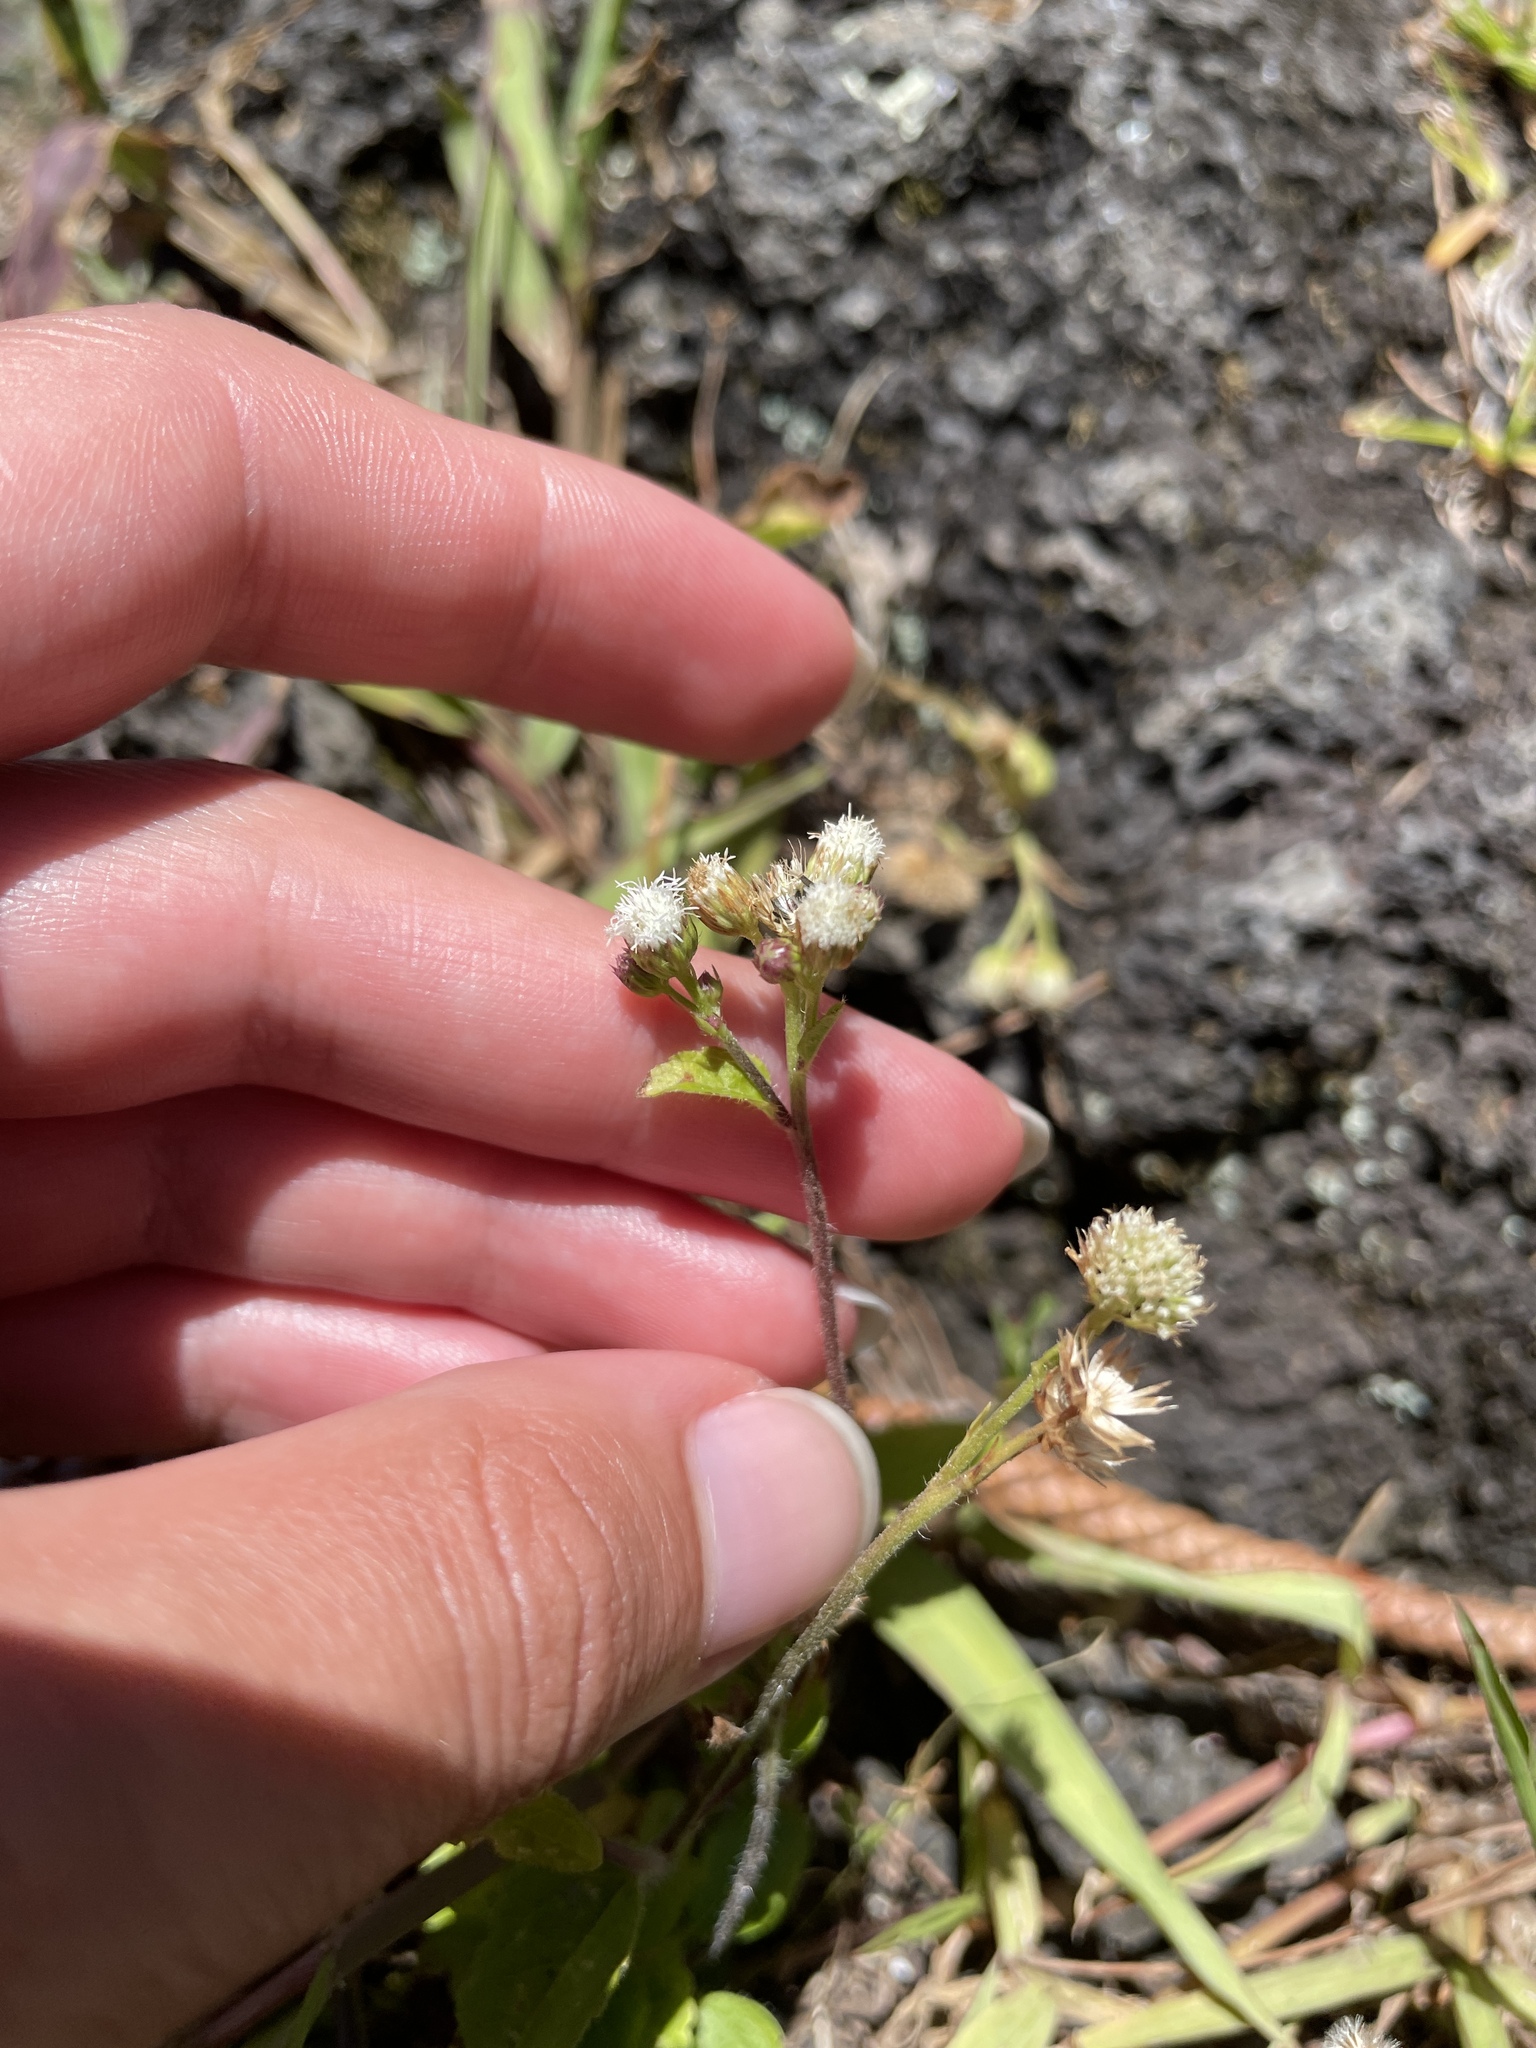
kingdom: Plantae
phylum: Tracheophyta
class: Magnoliopsida
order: Asterales
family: Asteraceae
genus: Ageratum
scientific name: Ageratum conyzoides
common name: Tropical whiteweed
